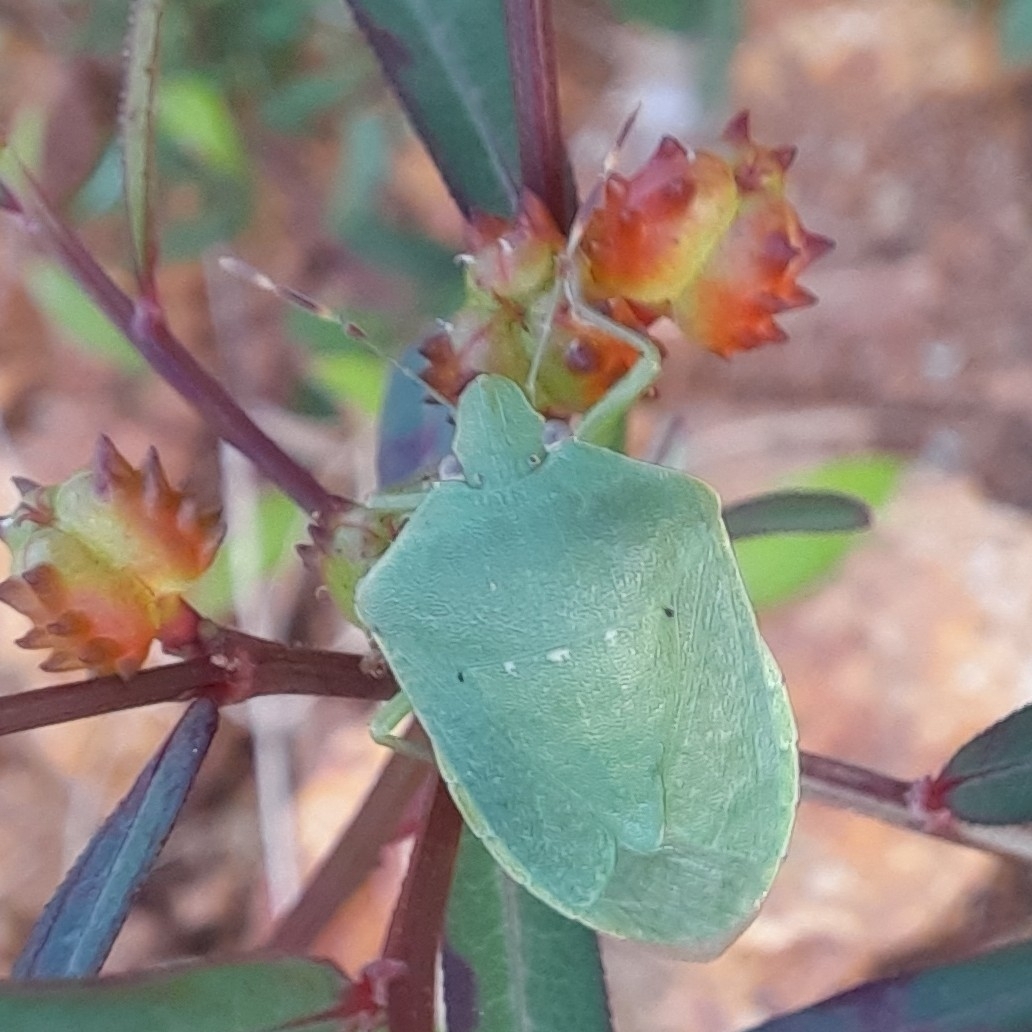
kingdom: Animalia
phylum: Arthropoda
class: Insecta
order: Hemiptera
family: Pentatomidae
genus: Nezara
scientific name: Nezara viridula
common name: Southern green stink bug
